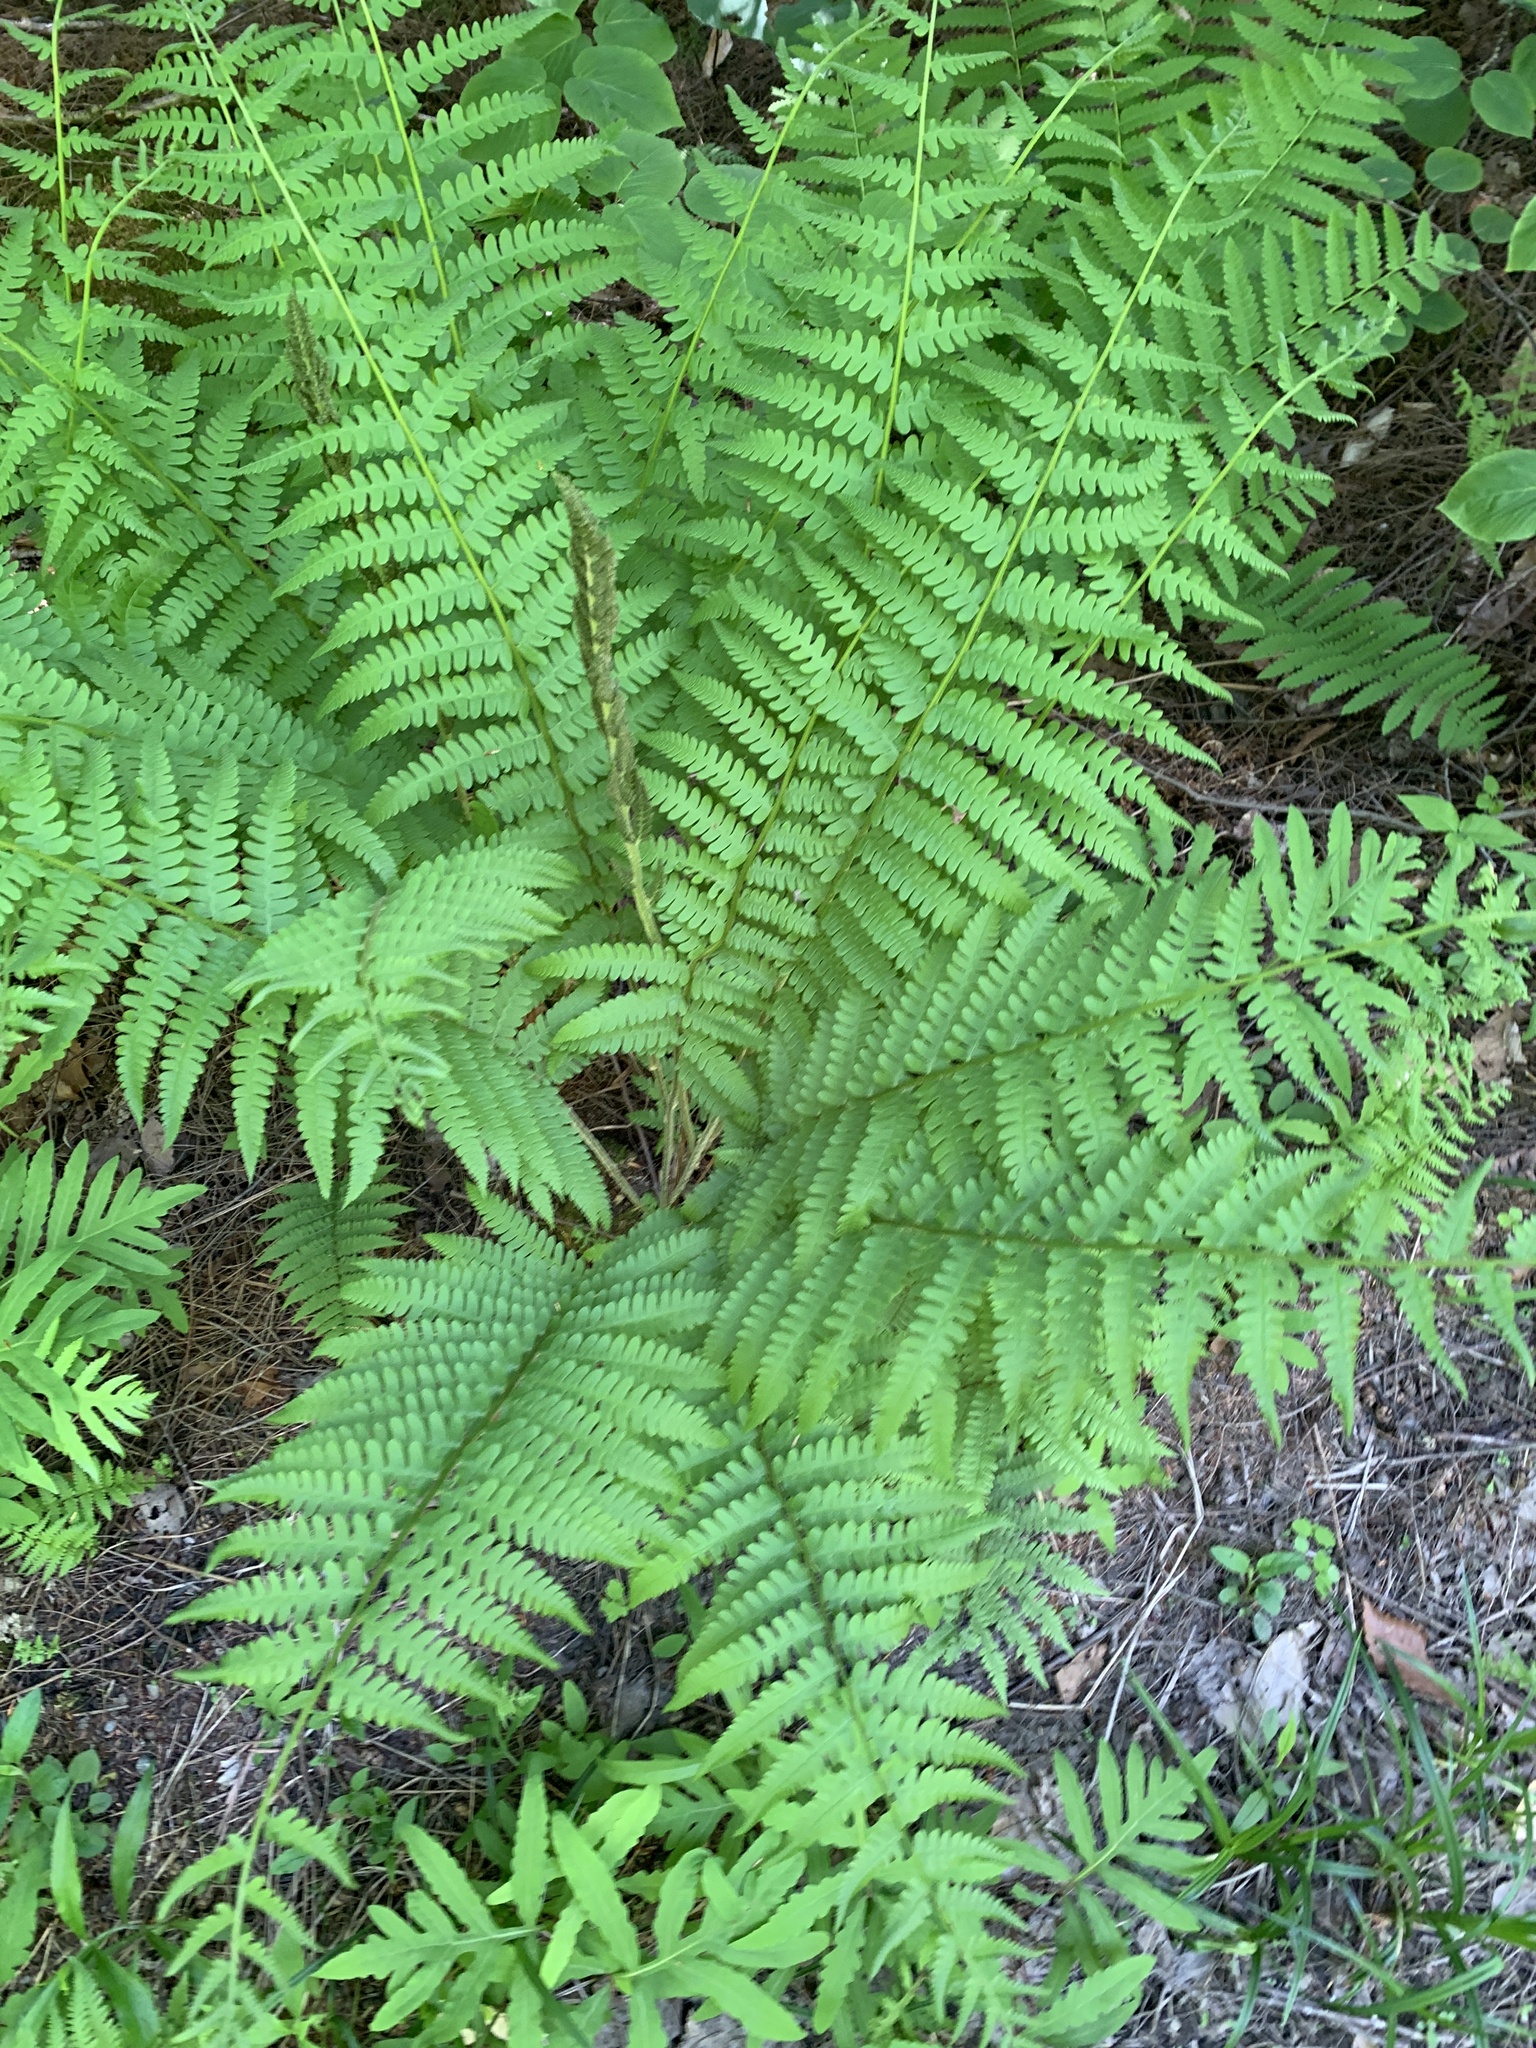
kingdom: Plantae
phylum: Tracheophyta
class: Polypodiopsida
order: Osmundales
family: Osmundaceae
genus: Osmundastrum
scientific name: Osmundastrum cinnamomeum
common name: Cinnamon fern
